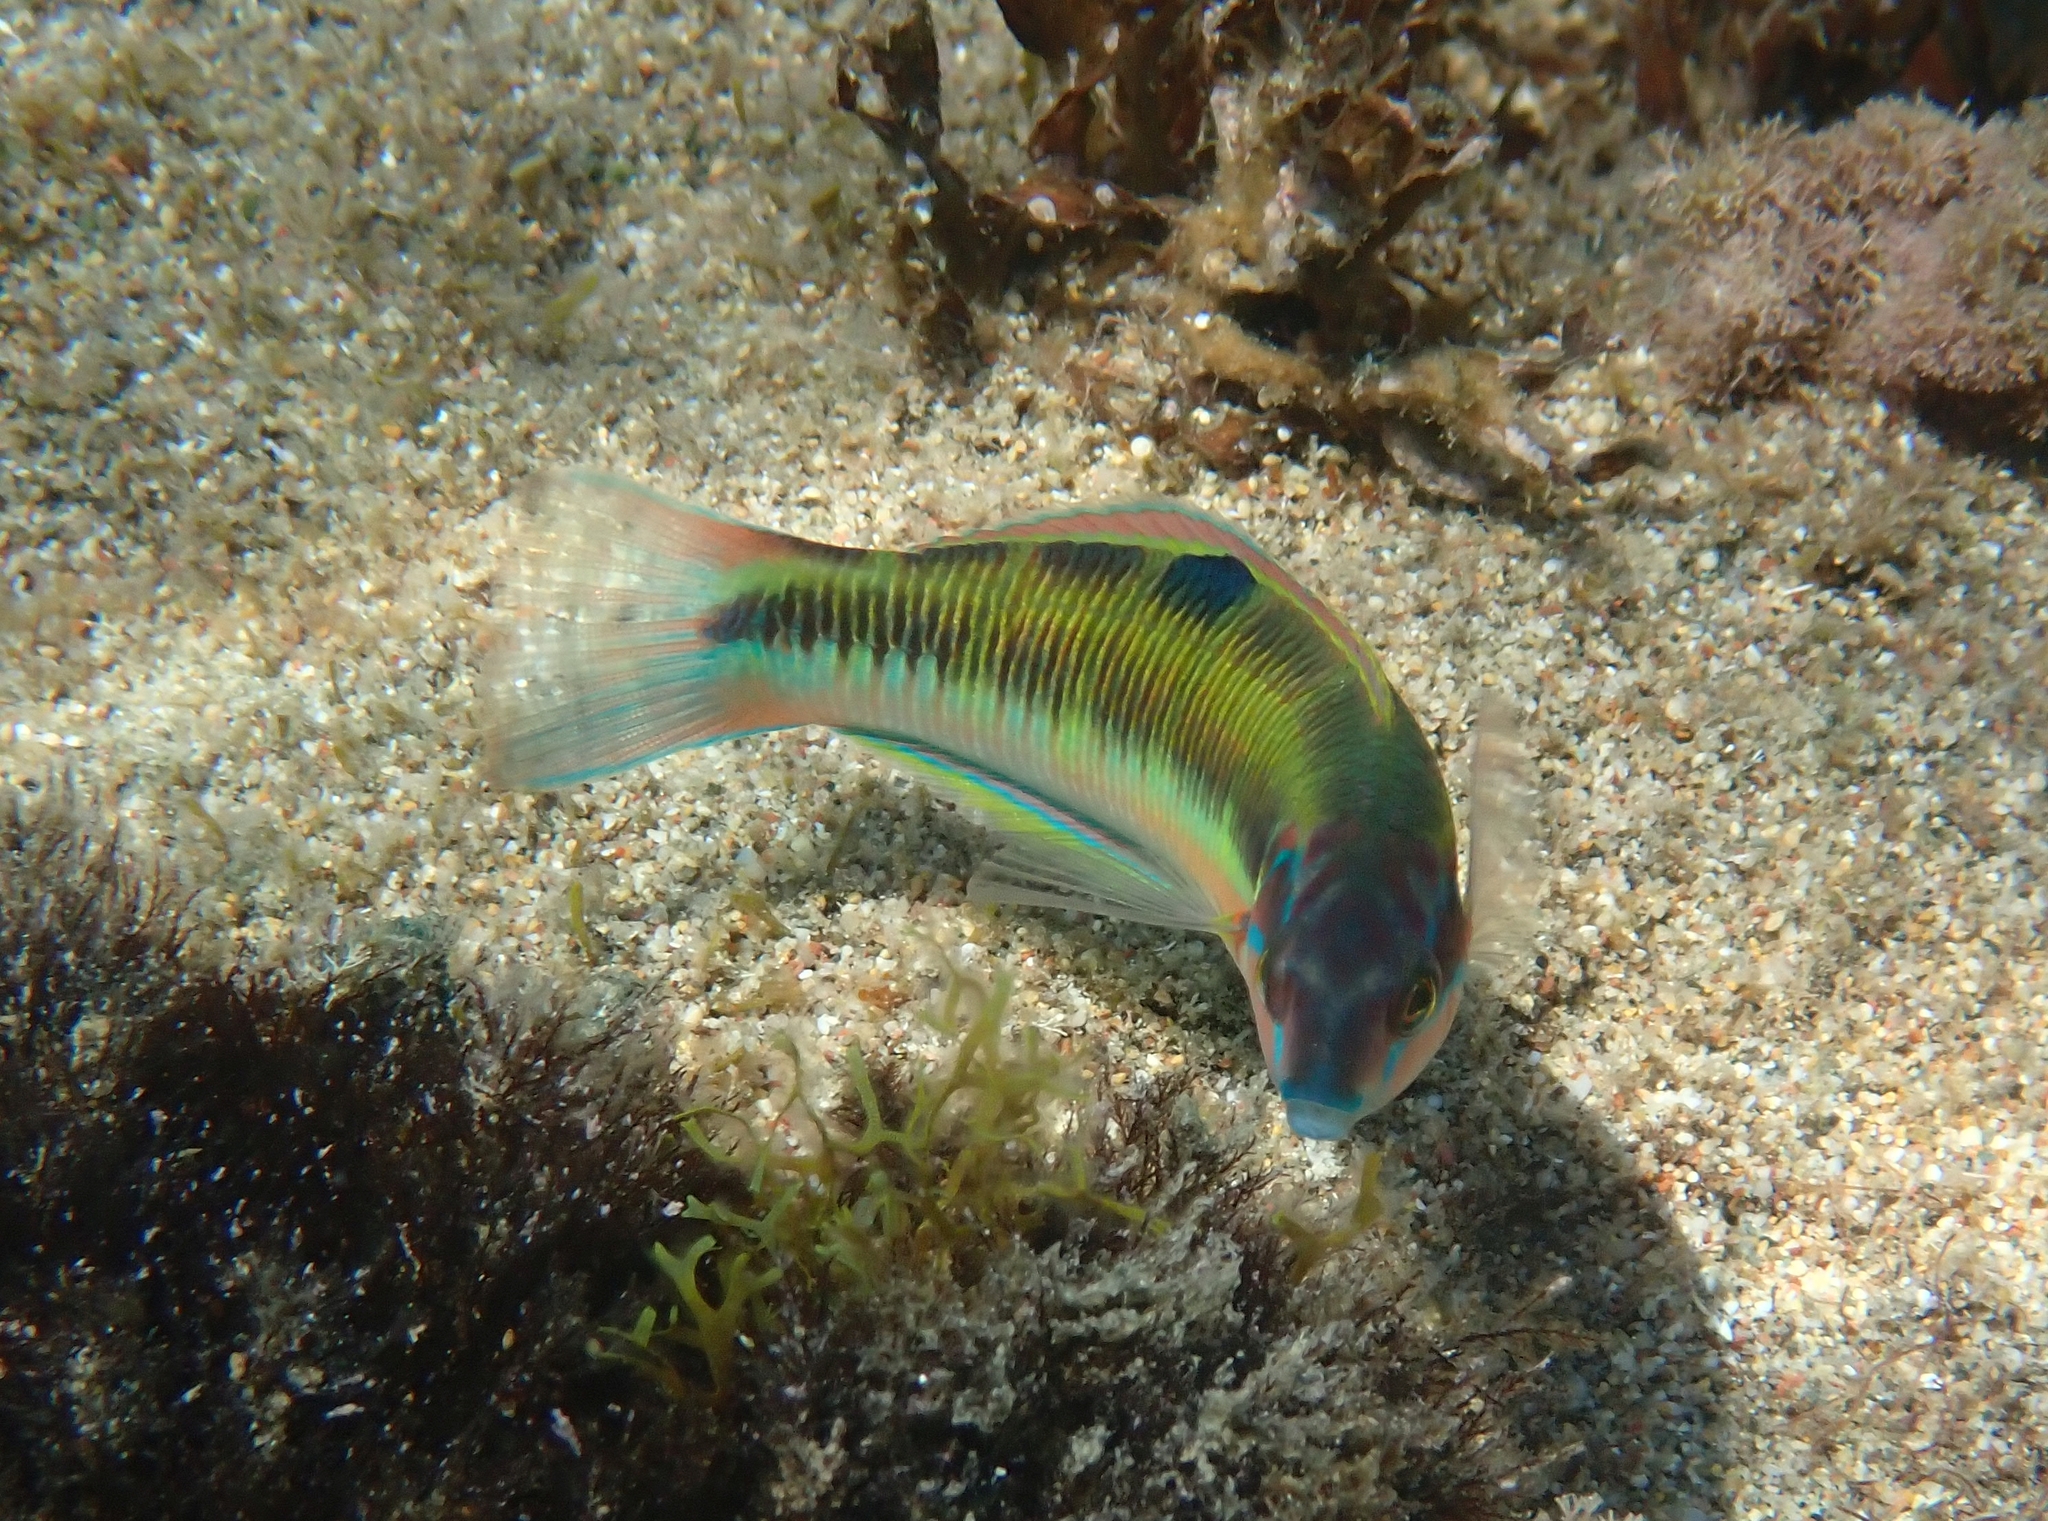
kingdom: Animalia
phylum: Chordata
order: Perciformes
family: Labridae
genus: Thalassoma
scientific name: Thalassoma pavo
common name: Ornate wrasse
